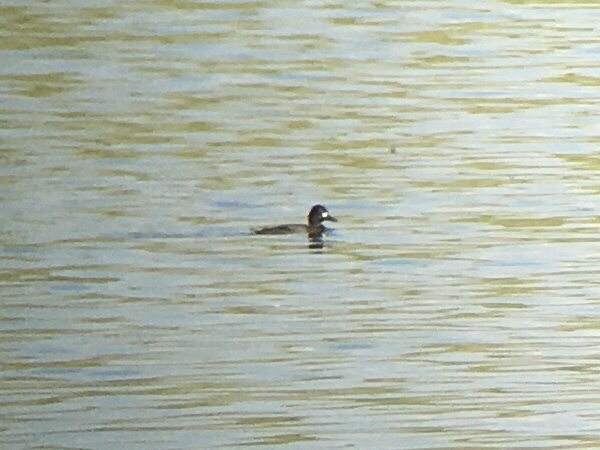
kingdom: Animalia
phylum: Chordata
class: Aves
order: Anseriformes
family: Anatidae
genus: Aythya
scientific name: Aythya affinis
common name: Lesser scaup
